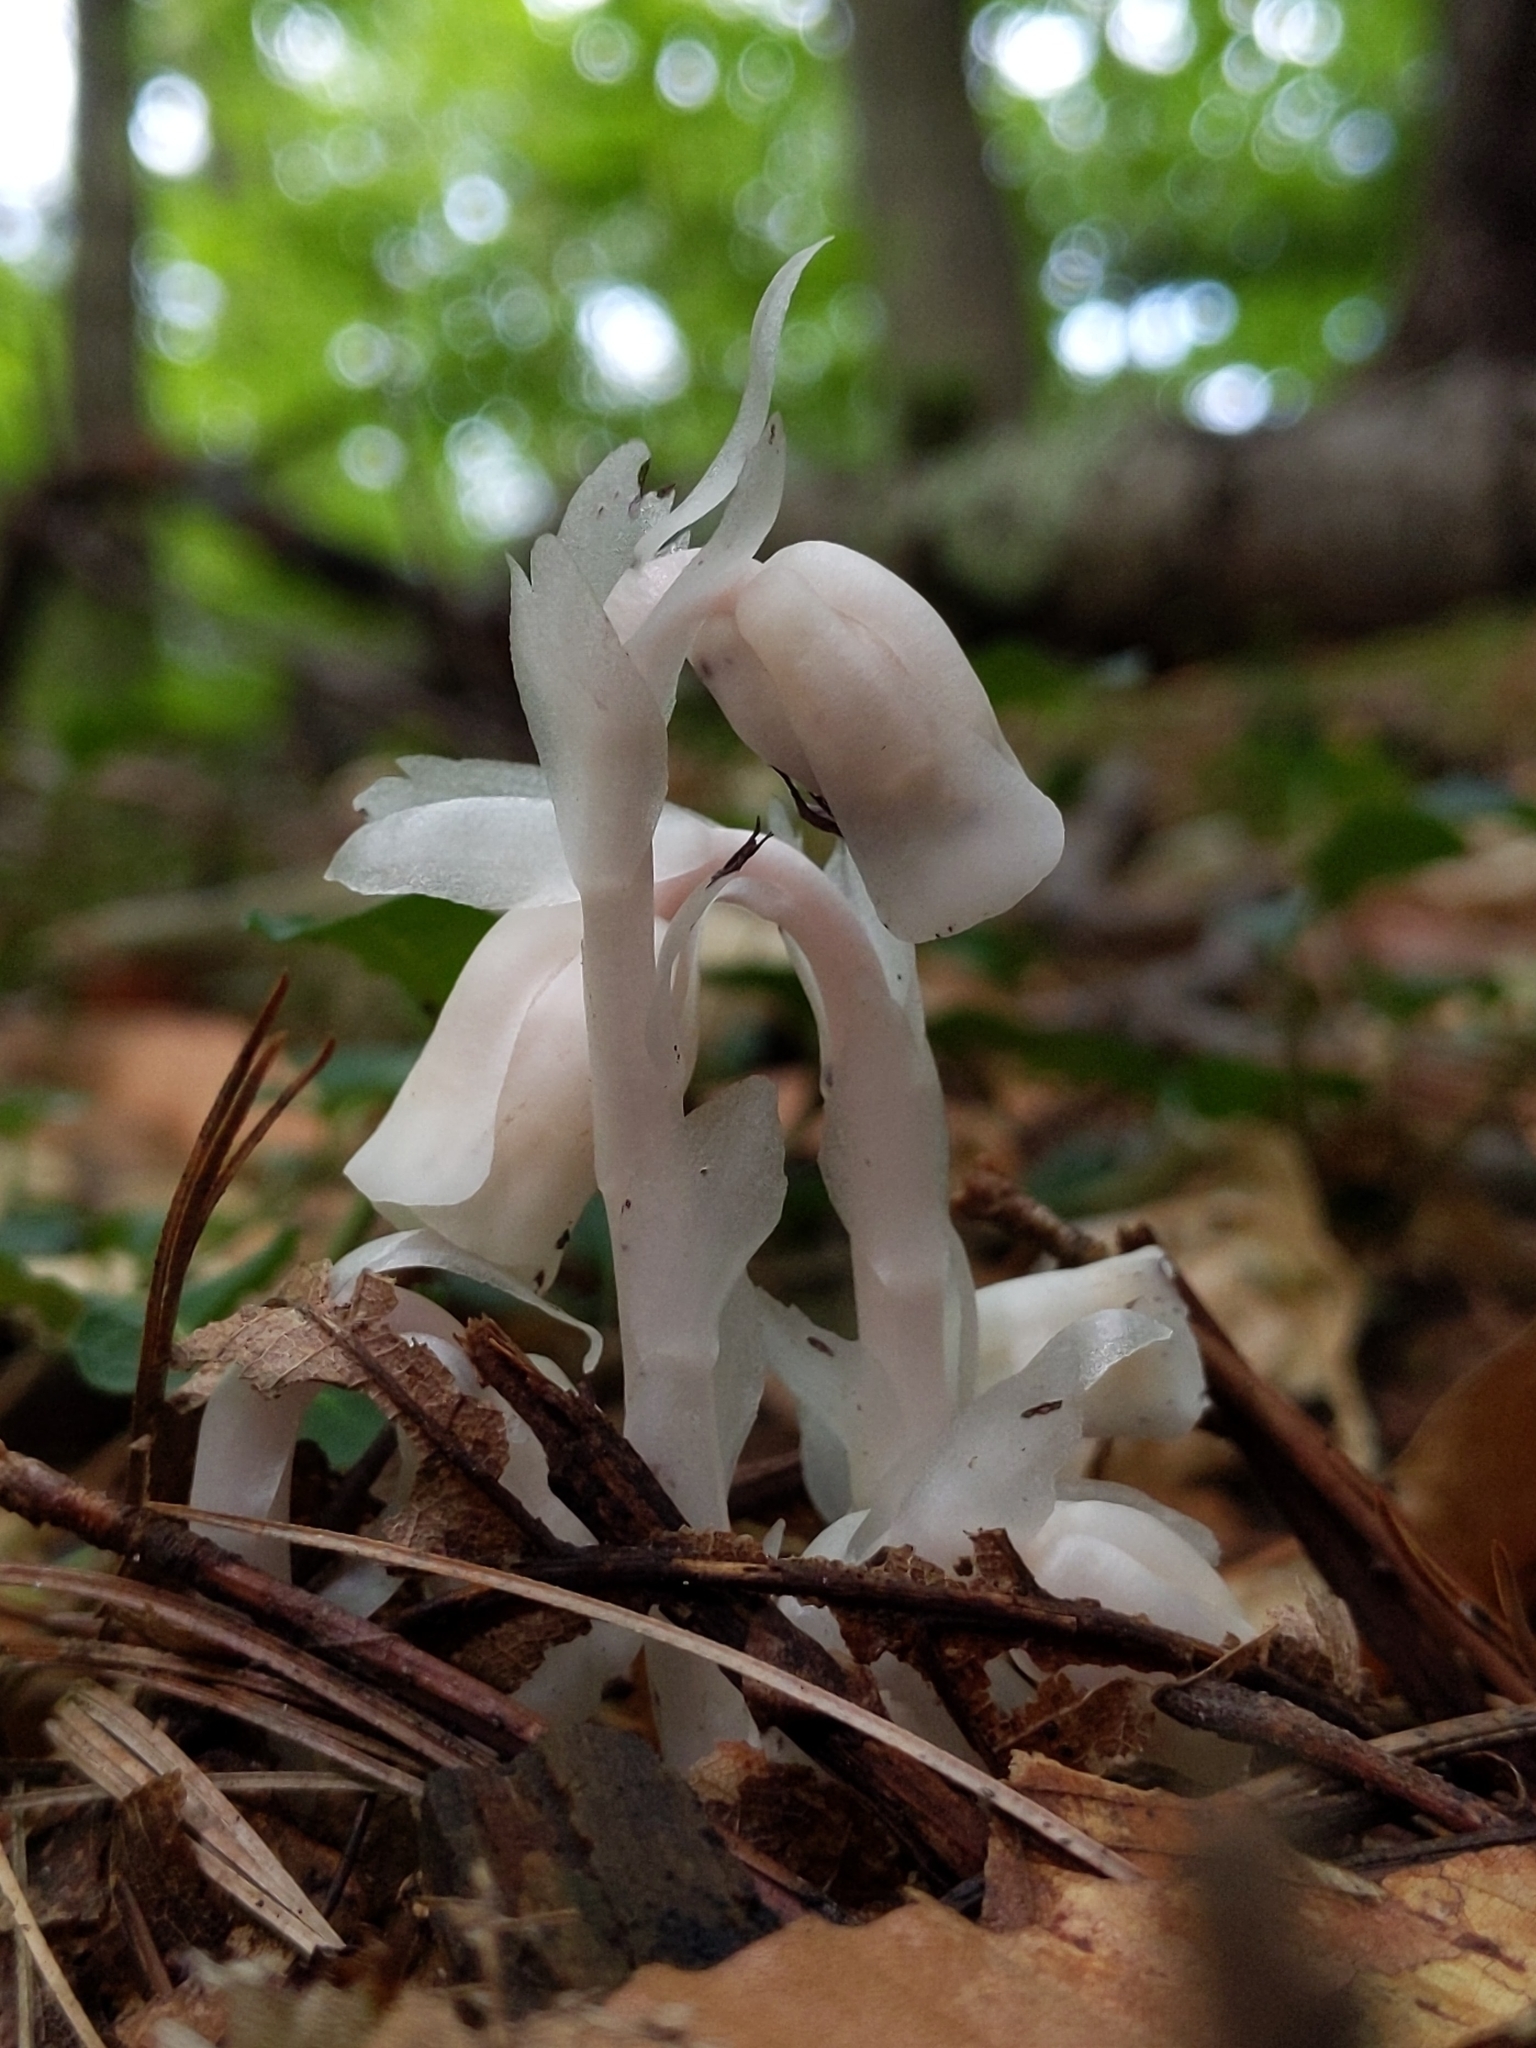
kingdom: Plantae
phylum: Tracheophyta
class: Magnoliopsida
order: Ericales
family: Ericaceae
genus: Monotropa
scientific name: Monotropa uniflora
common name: Convulsion root
